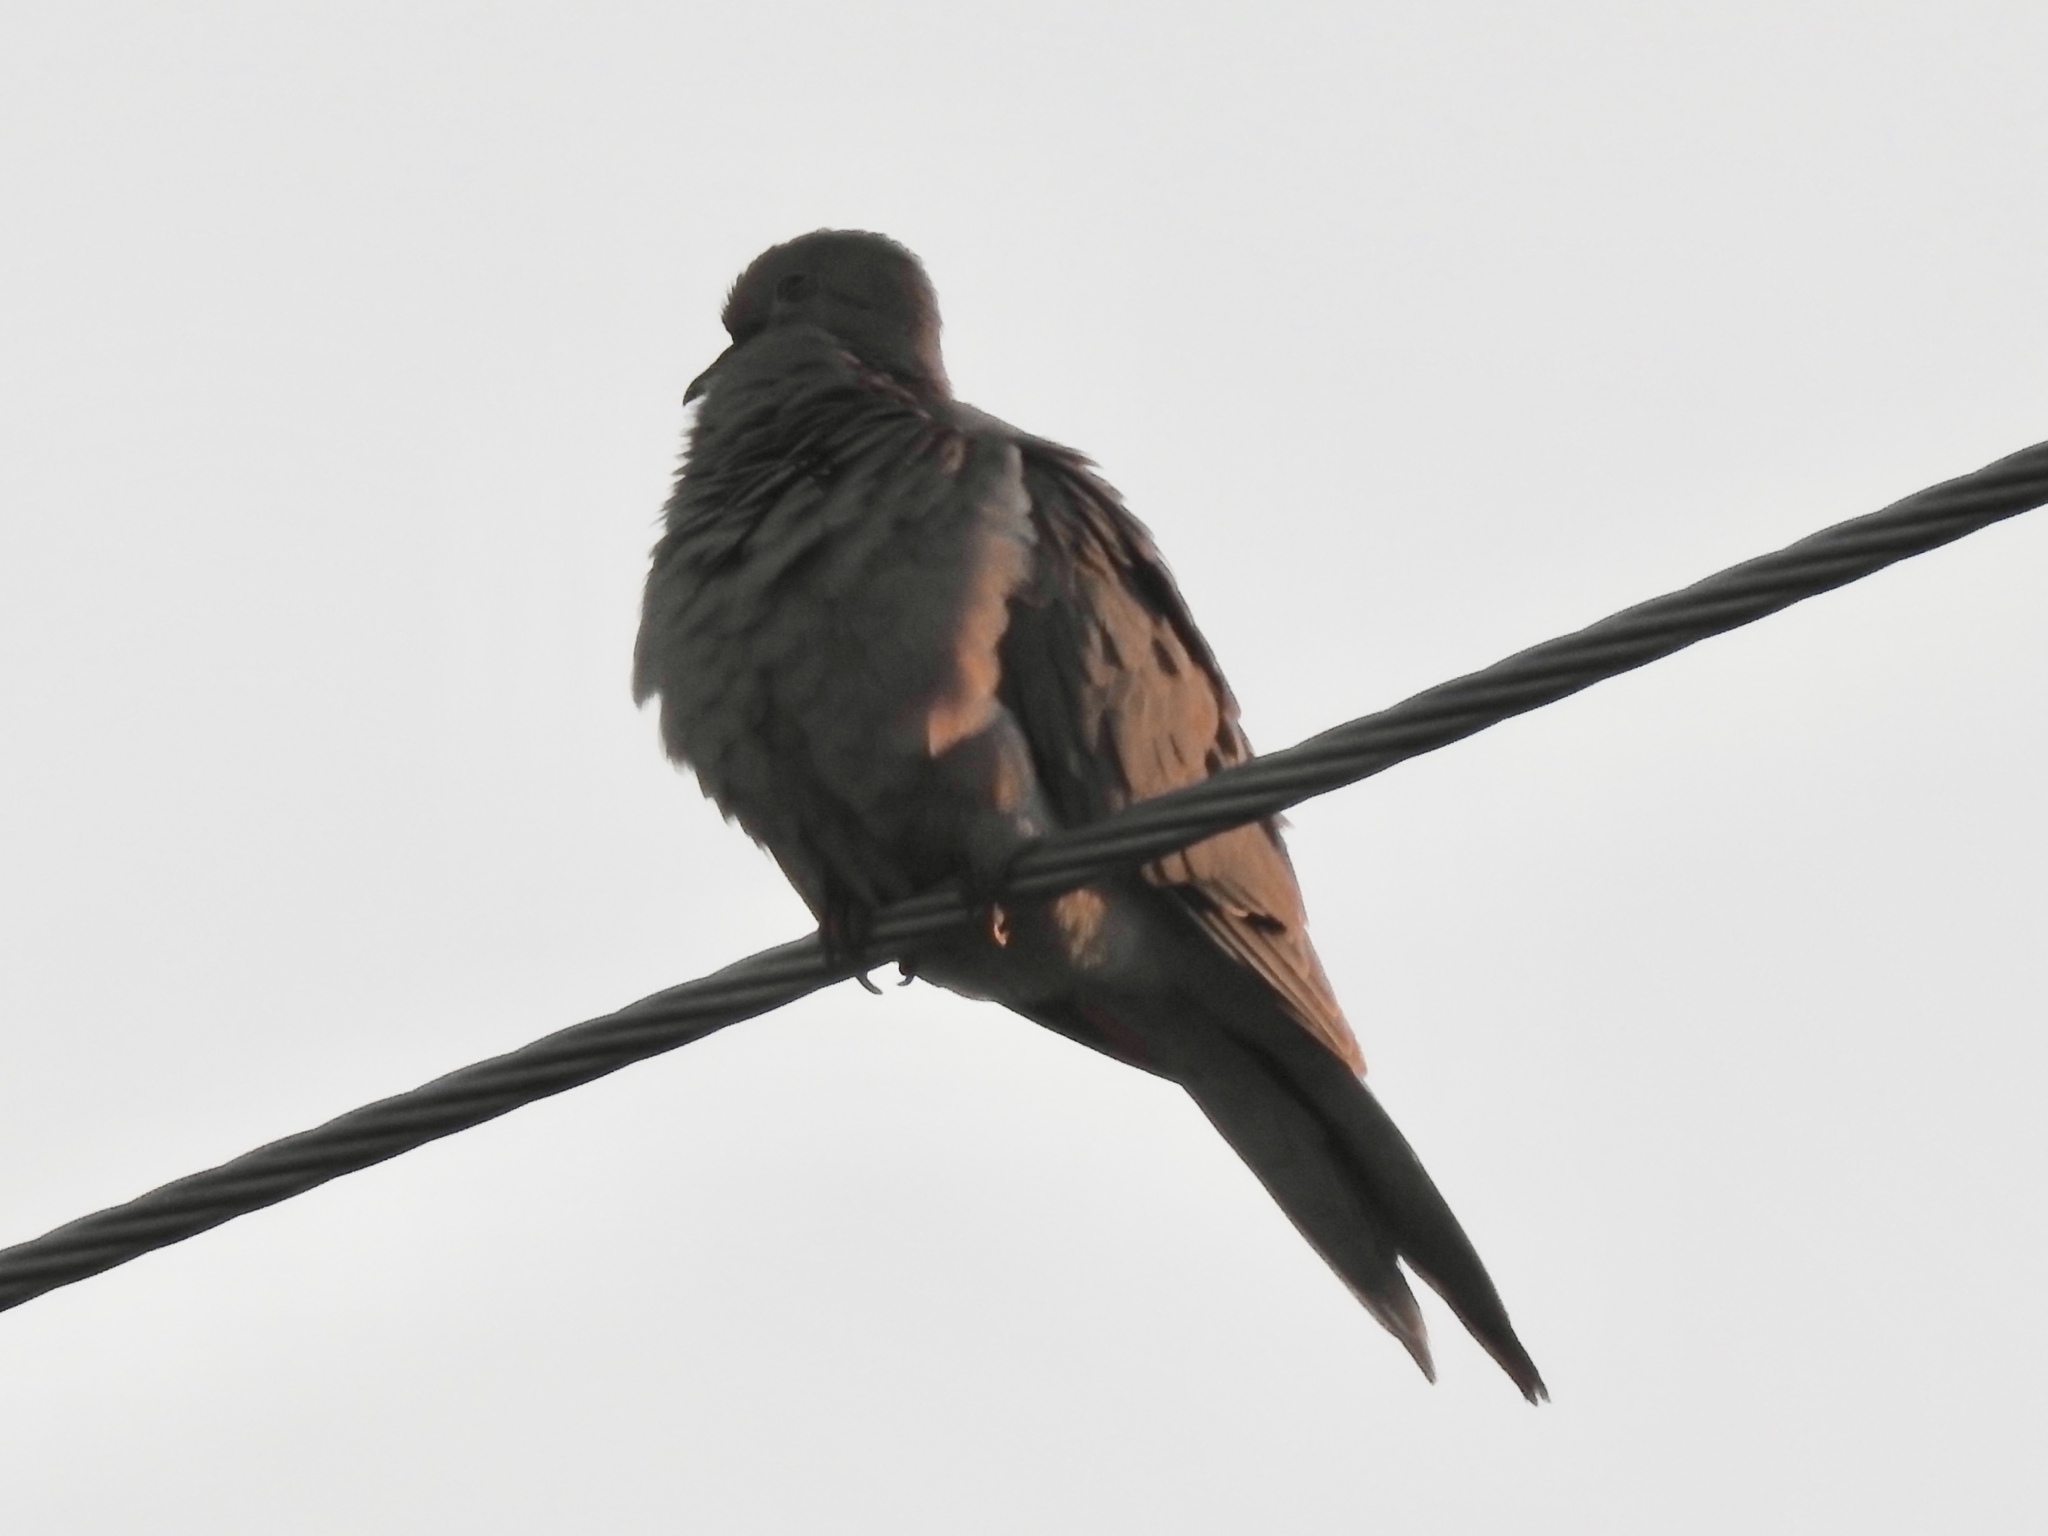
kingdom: Animalia
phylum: Chordata
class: Aves
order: Columbiformes
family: Columbidae
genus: Zenaida
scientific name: Zenaida macroura
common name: Mourning dove
